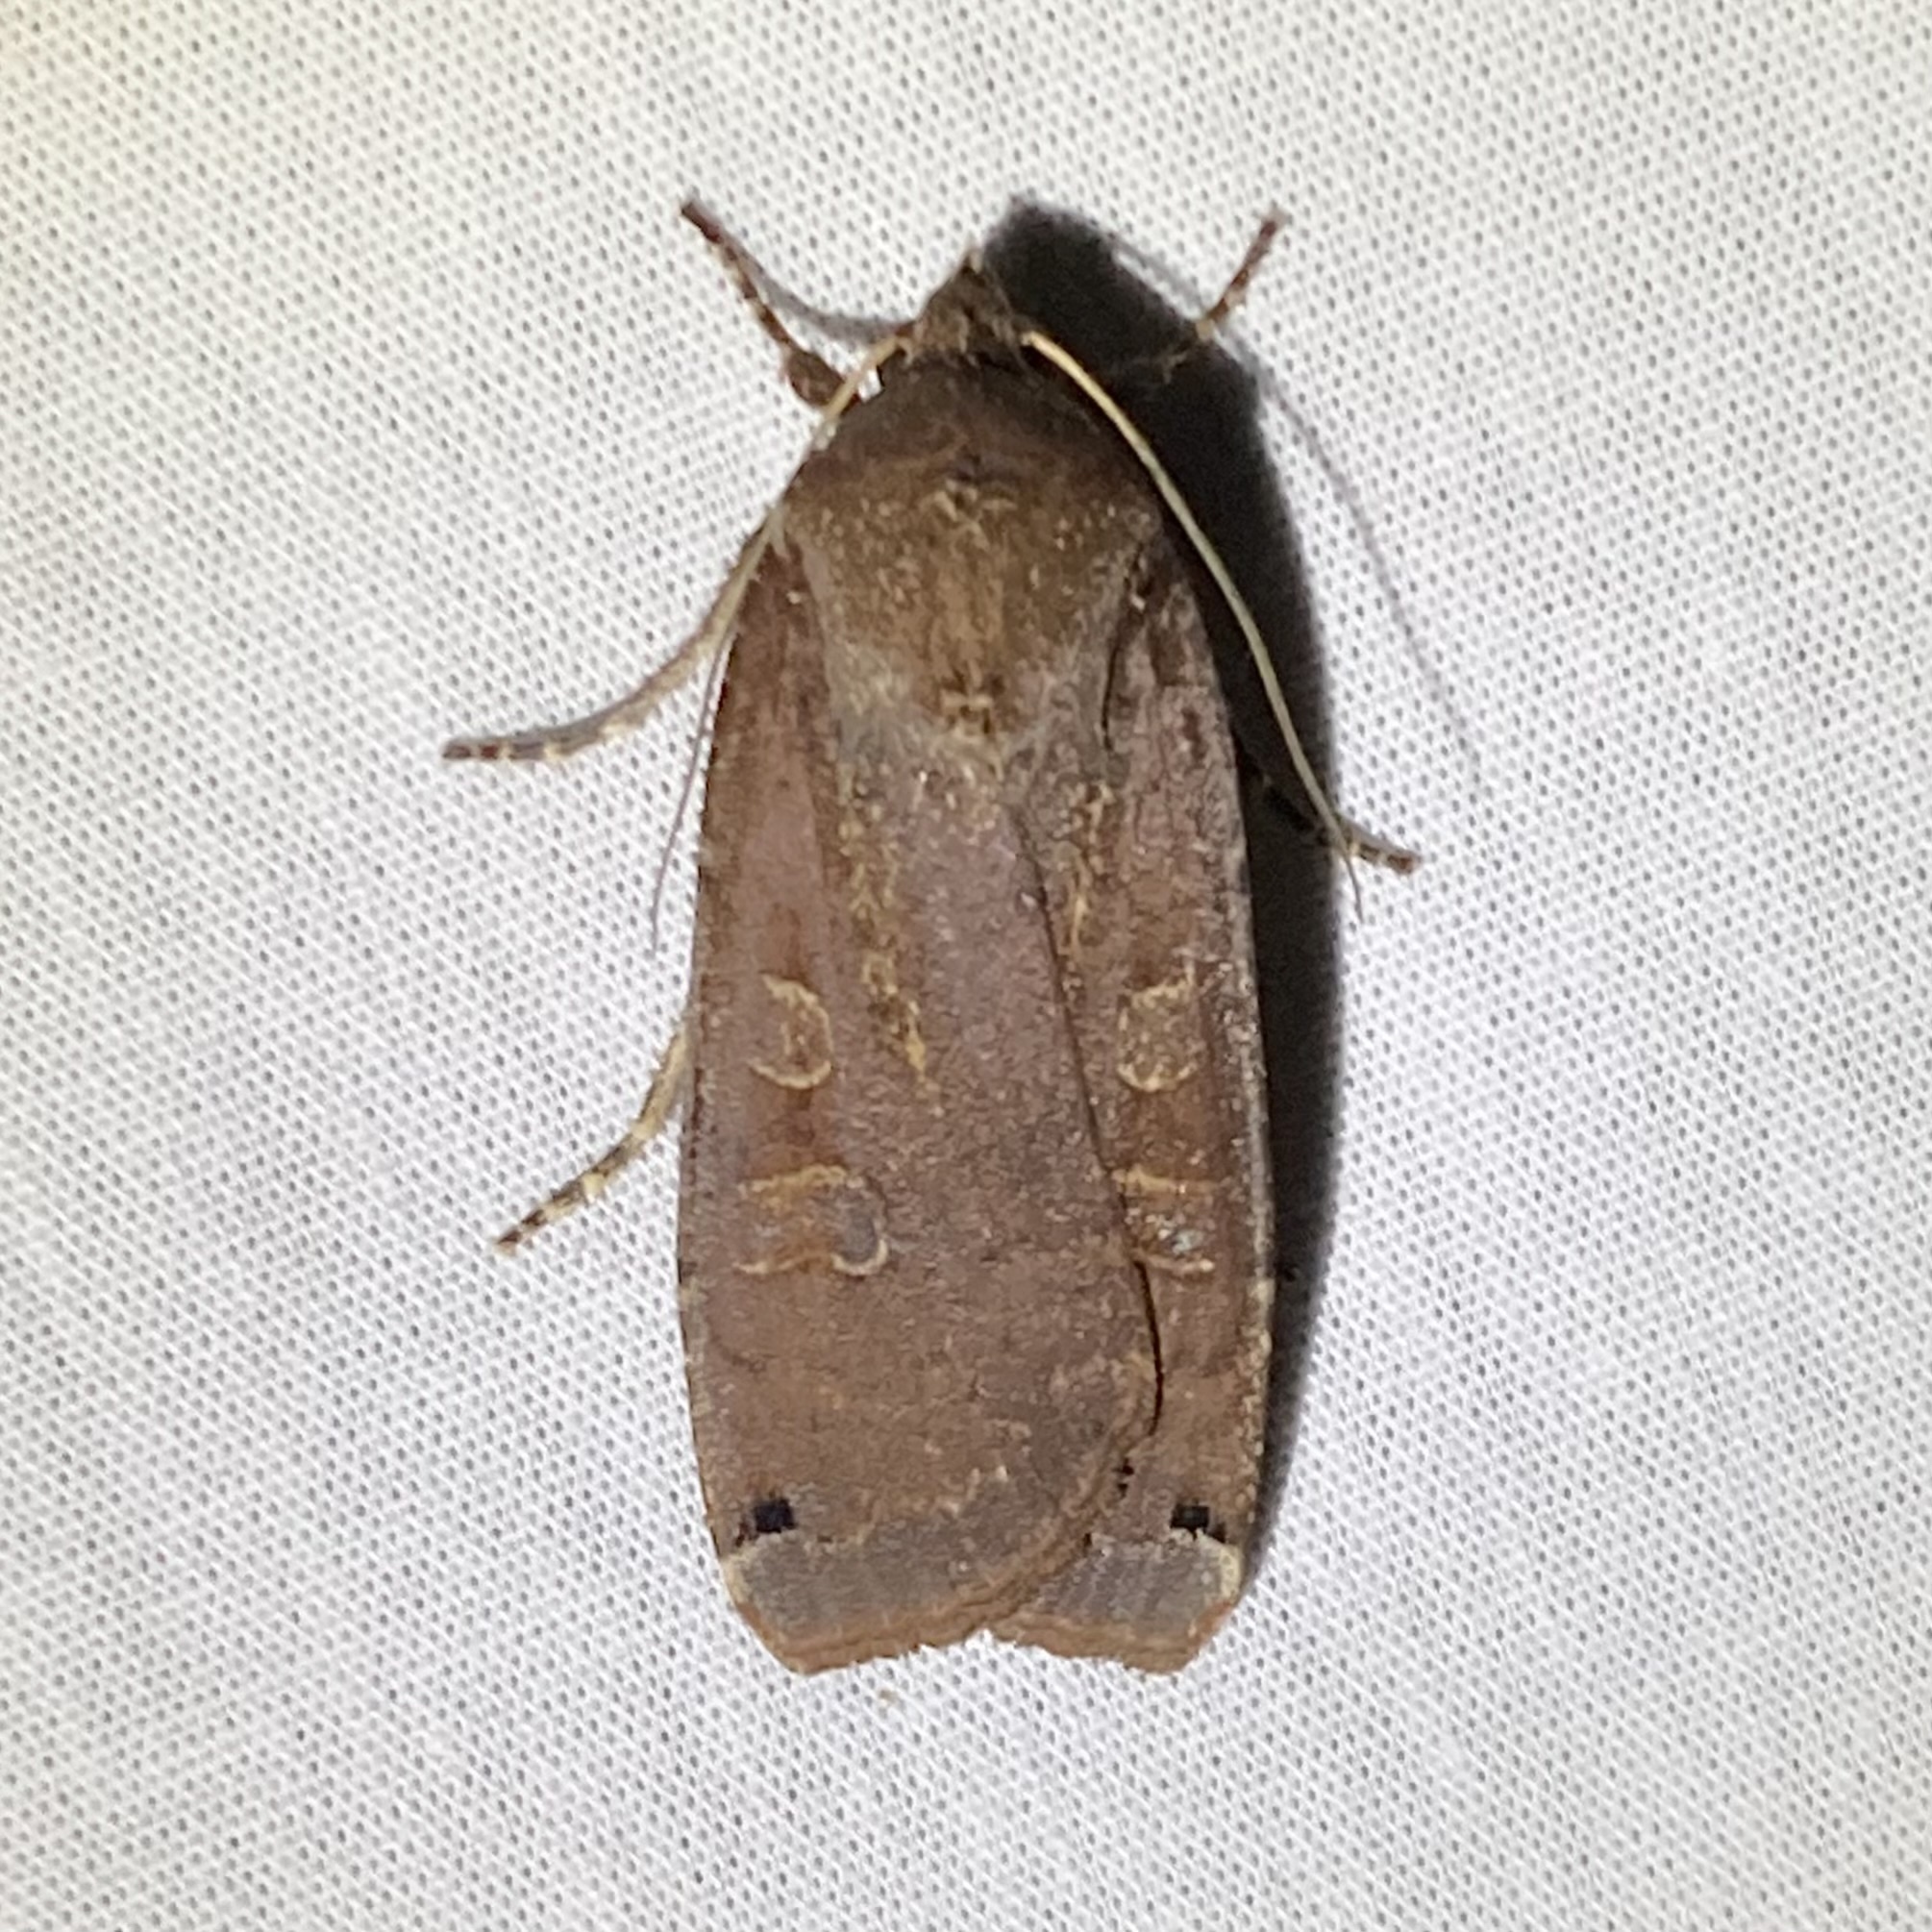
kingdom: Animalia
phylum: Arthropoda
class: Insecta
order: Lepidoptera
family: Noctuidae
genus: Noctua
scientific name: Noctua pronuba
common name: Large yellow underwing
